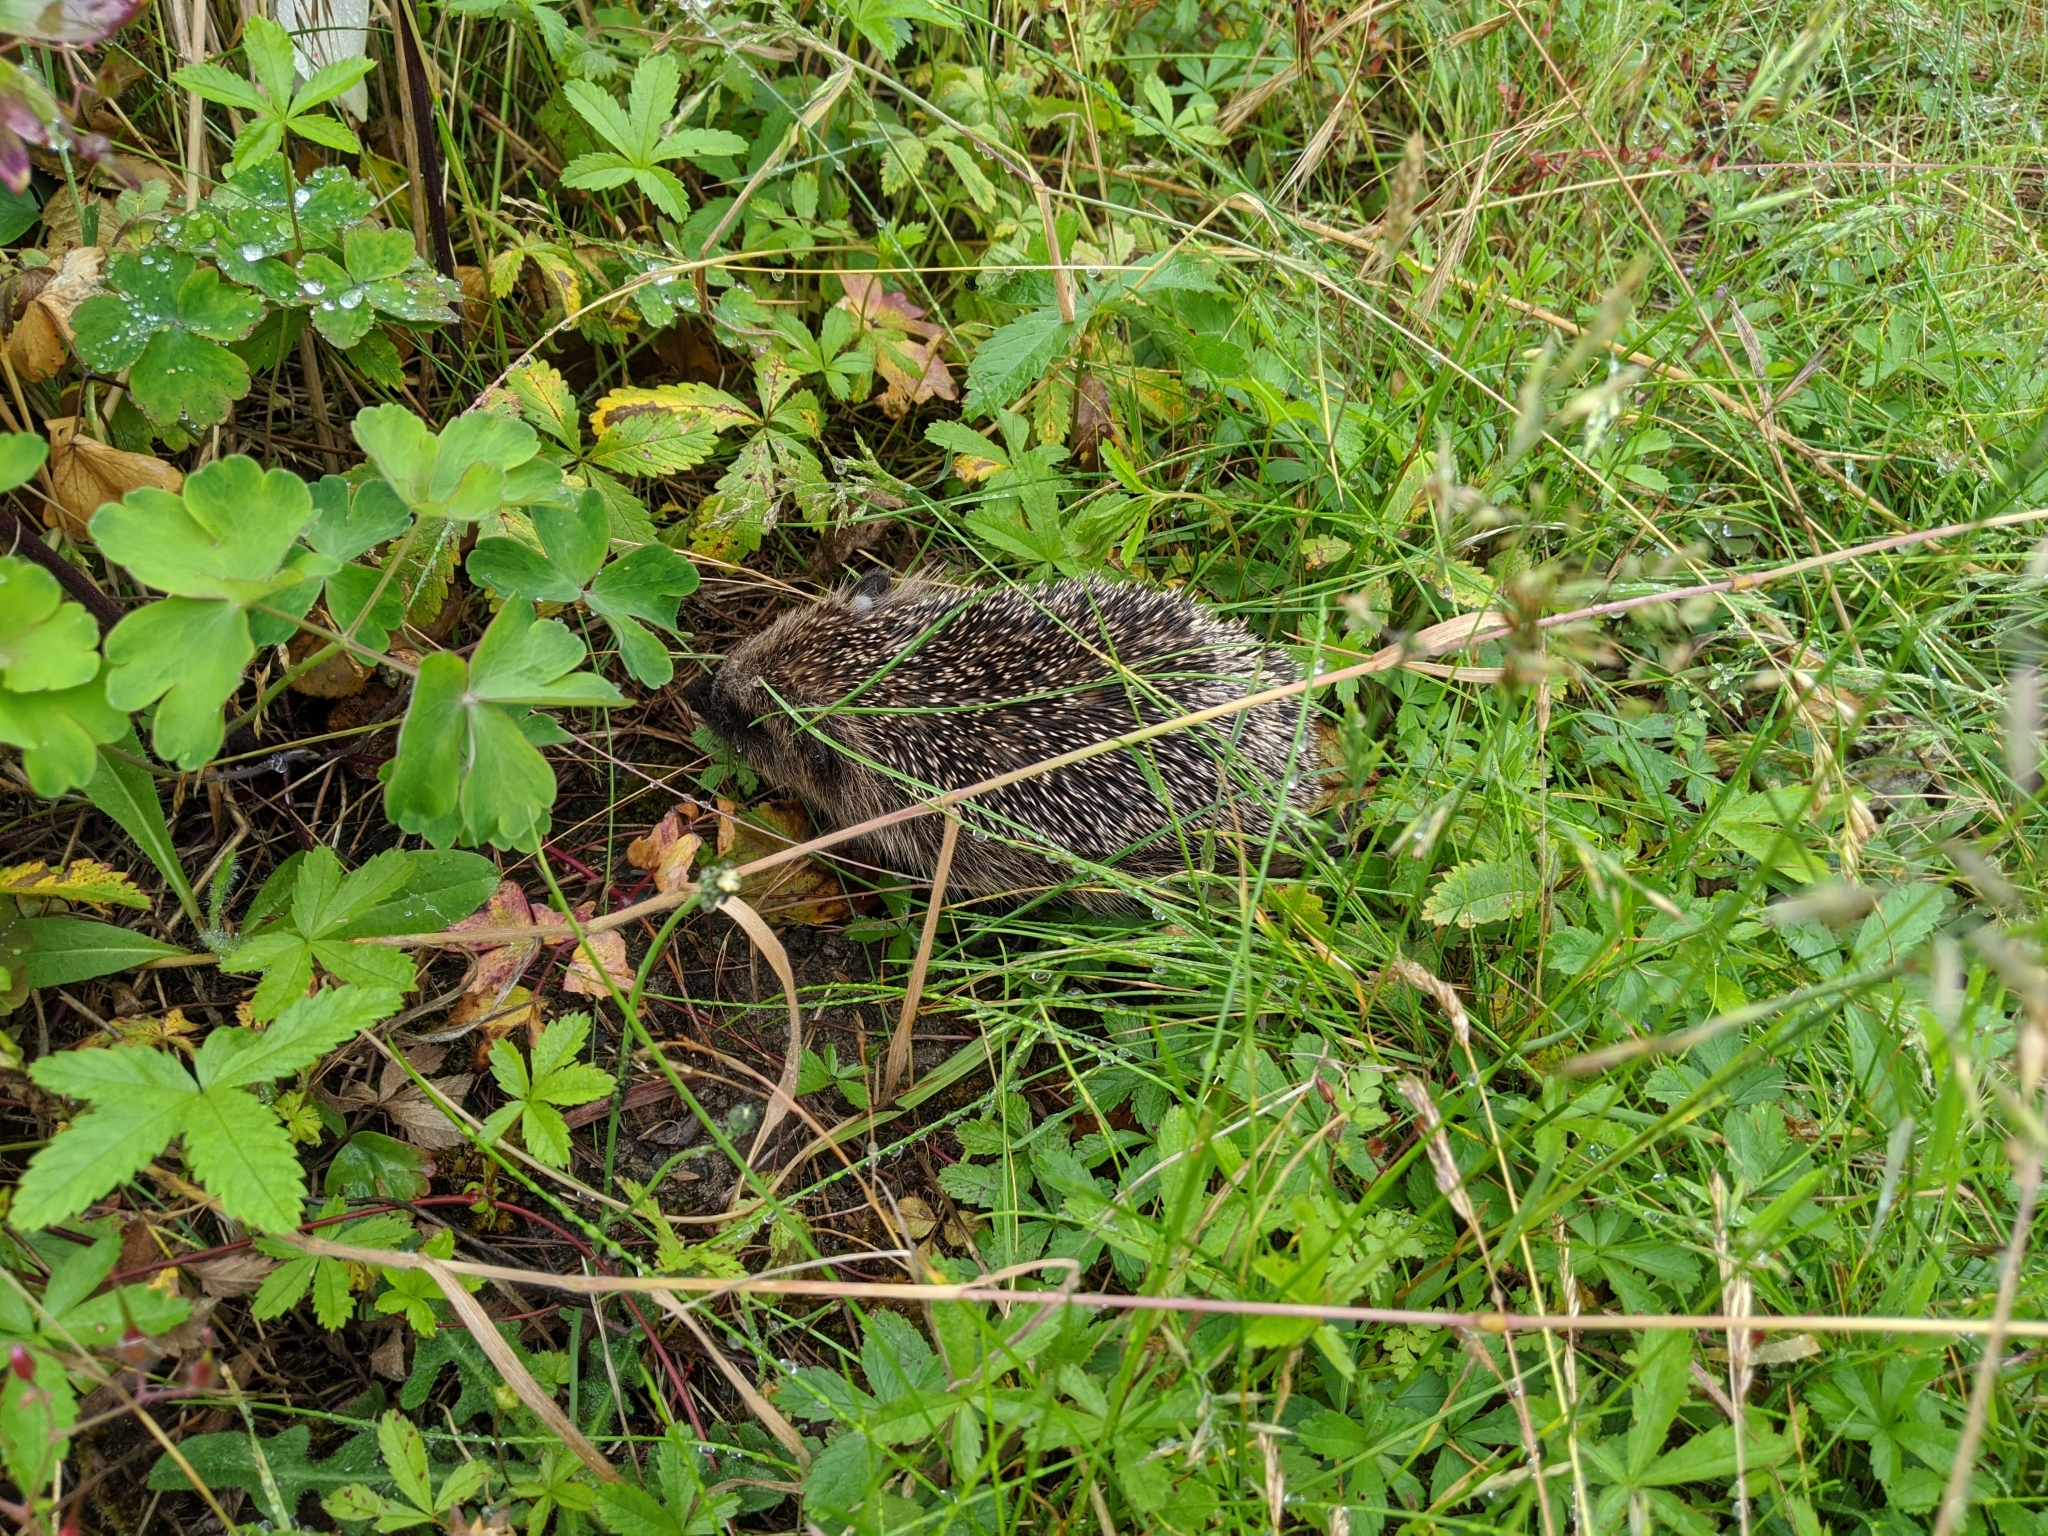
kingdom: Animalia
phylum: Chordata
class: Mammalia
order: Erinaceomorpha
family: Erinaceidae
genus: Erinaceus
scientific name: Erinaceus europaeus
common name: West european hedgehog
